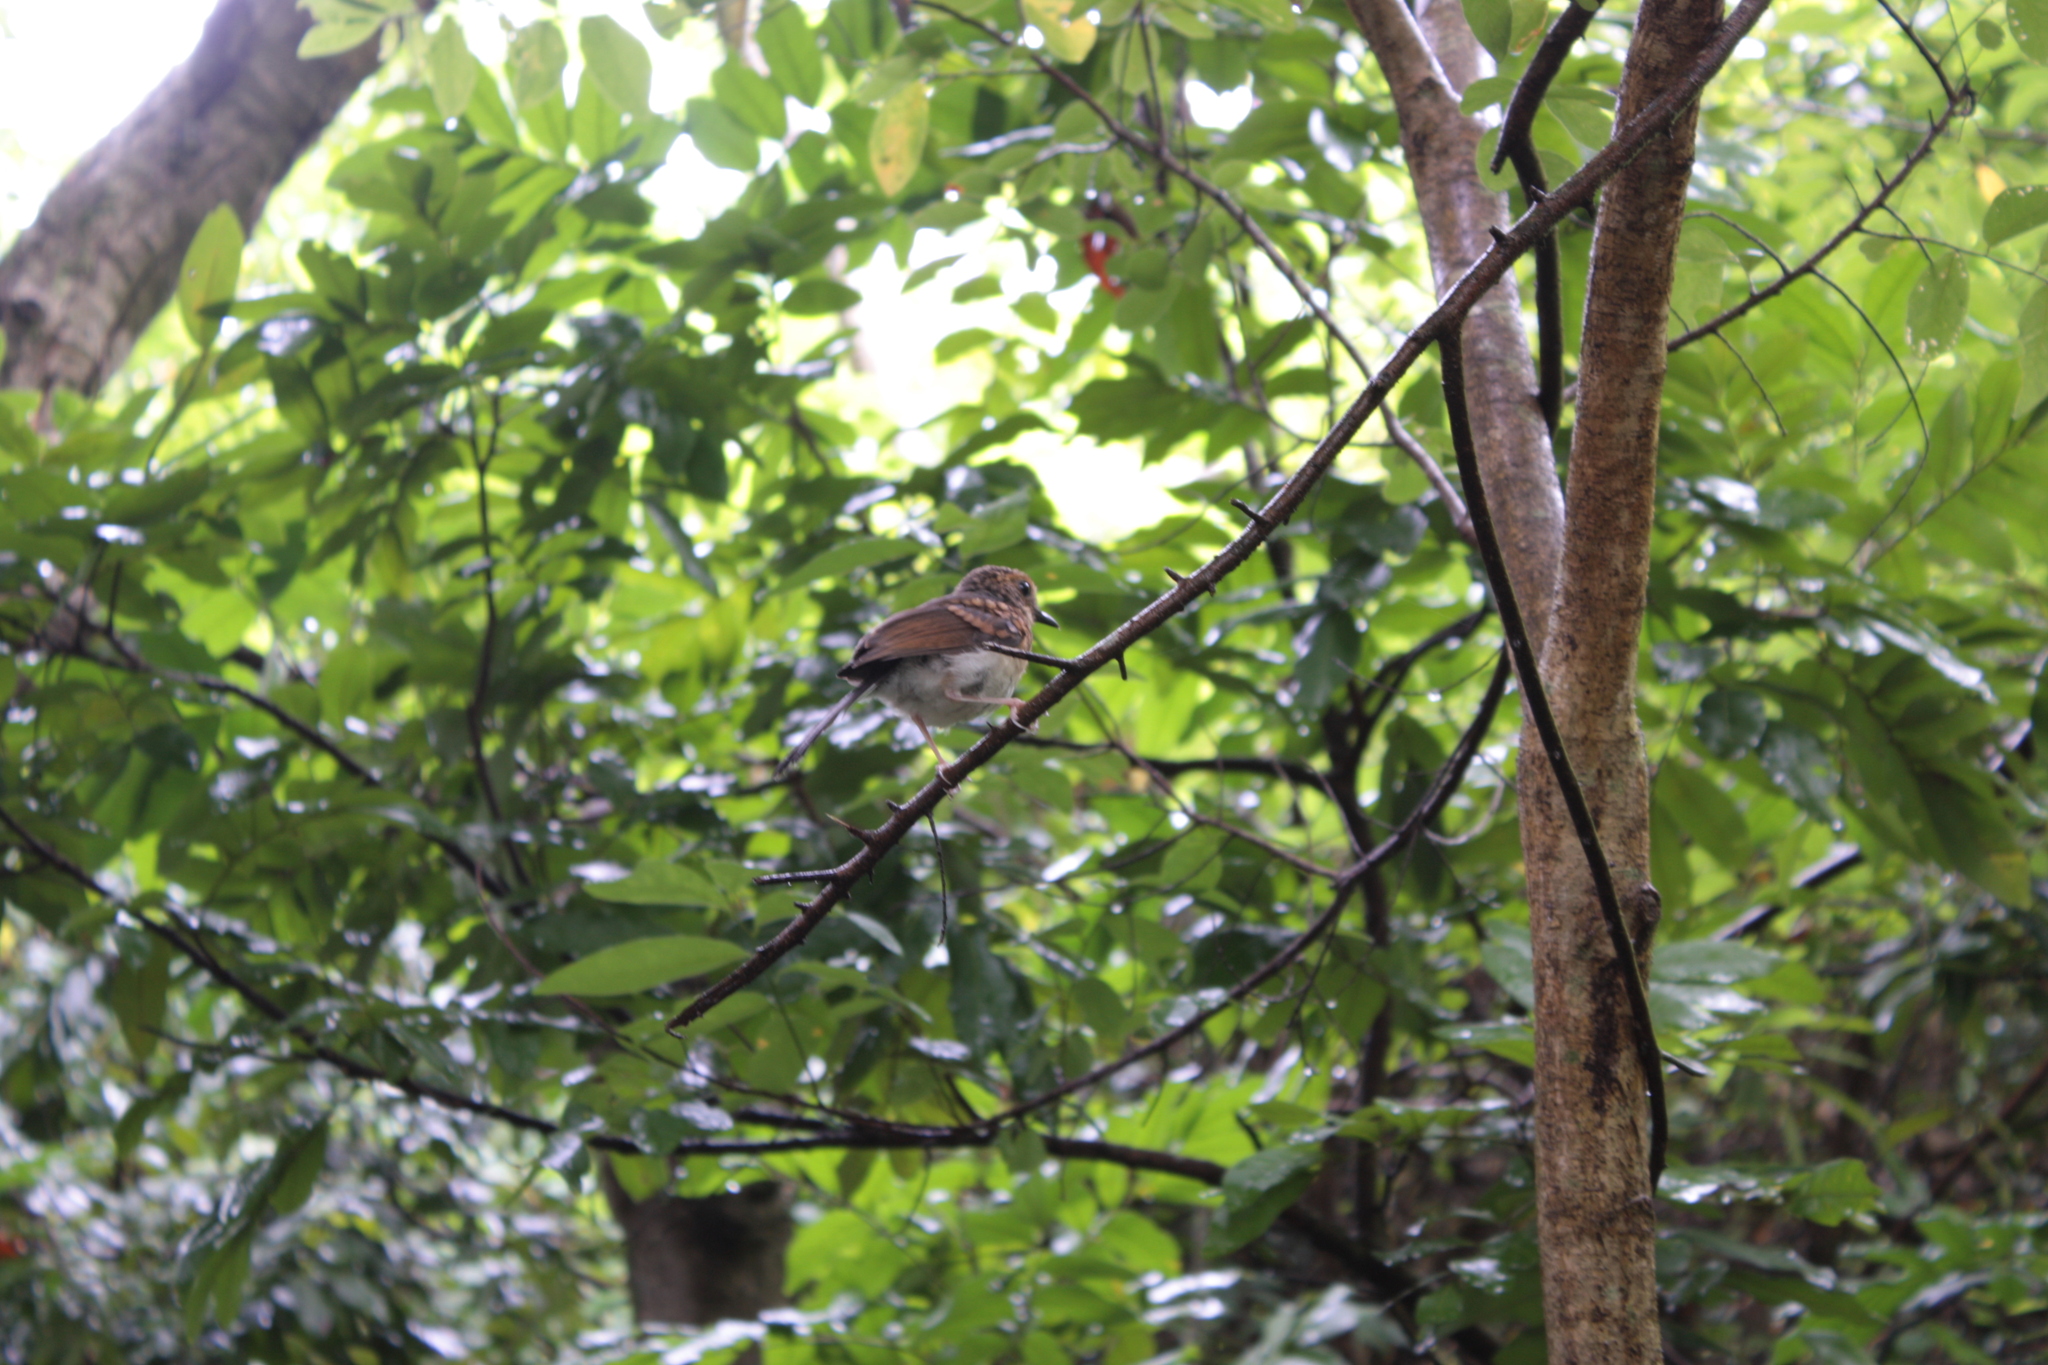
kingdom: Animalia
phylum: Chordata
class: Aves
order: Passeriformes
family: Muscicapidae
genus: Copsychus
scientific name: Copsychus malabaricus
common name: White-rumped shama
